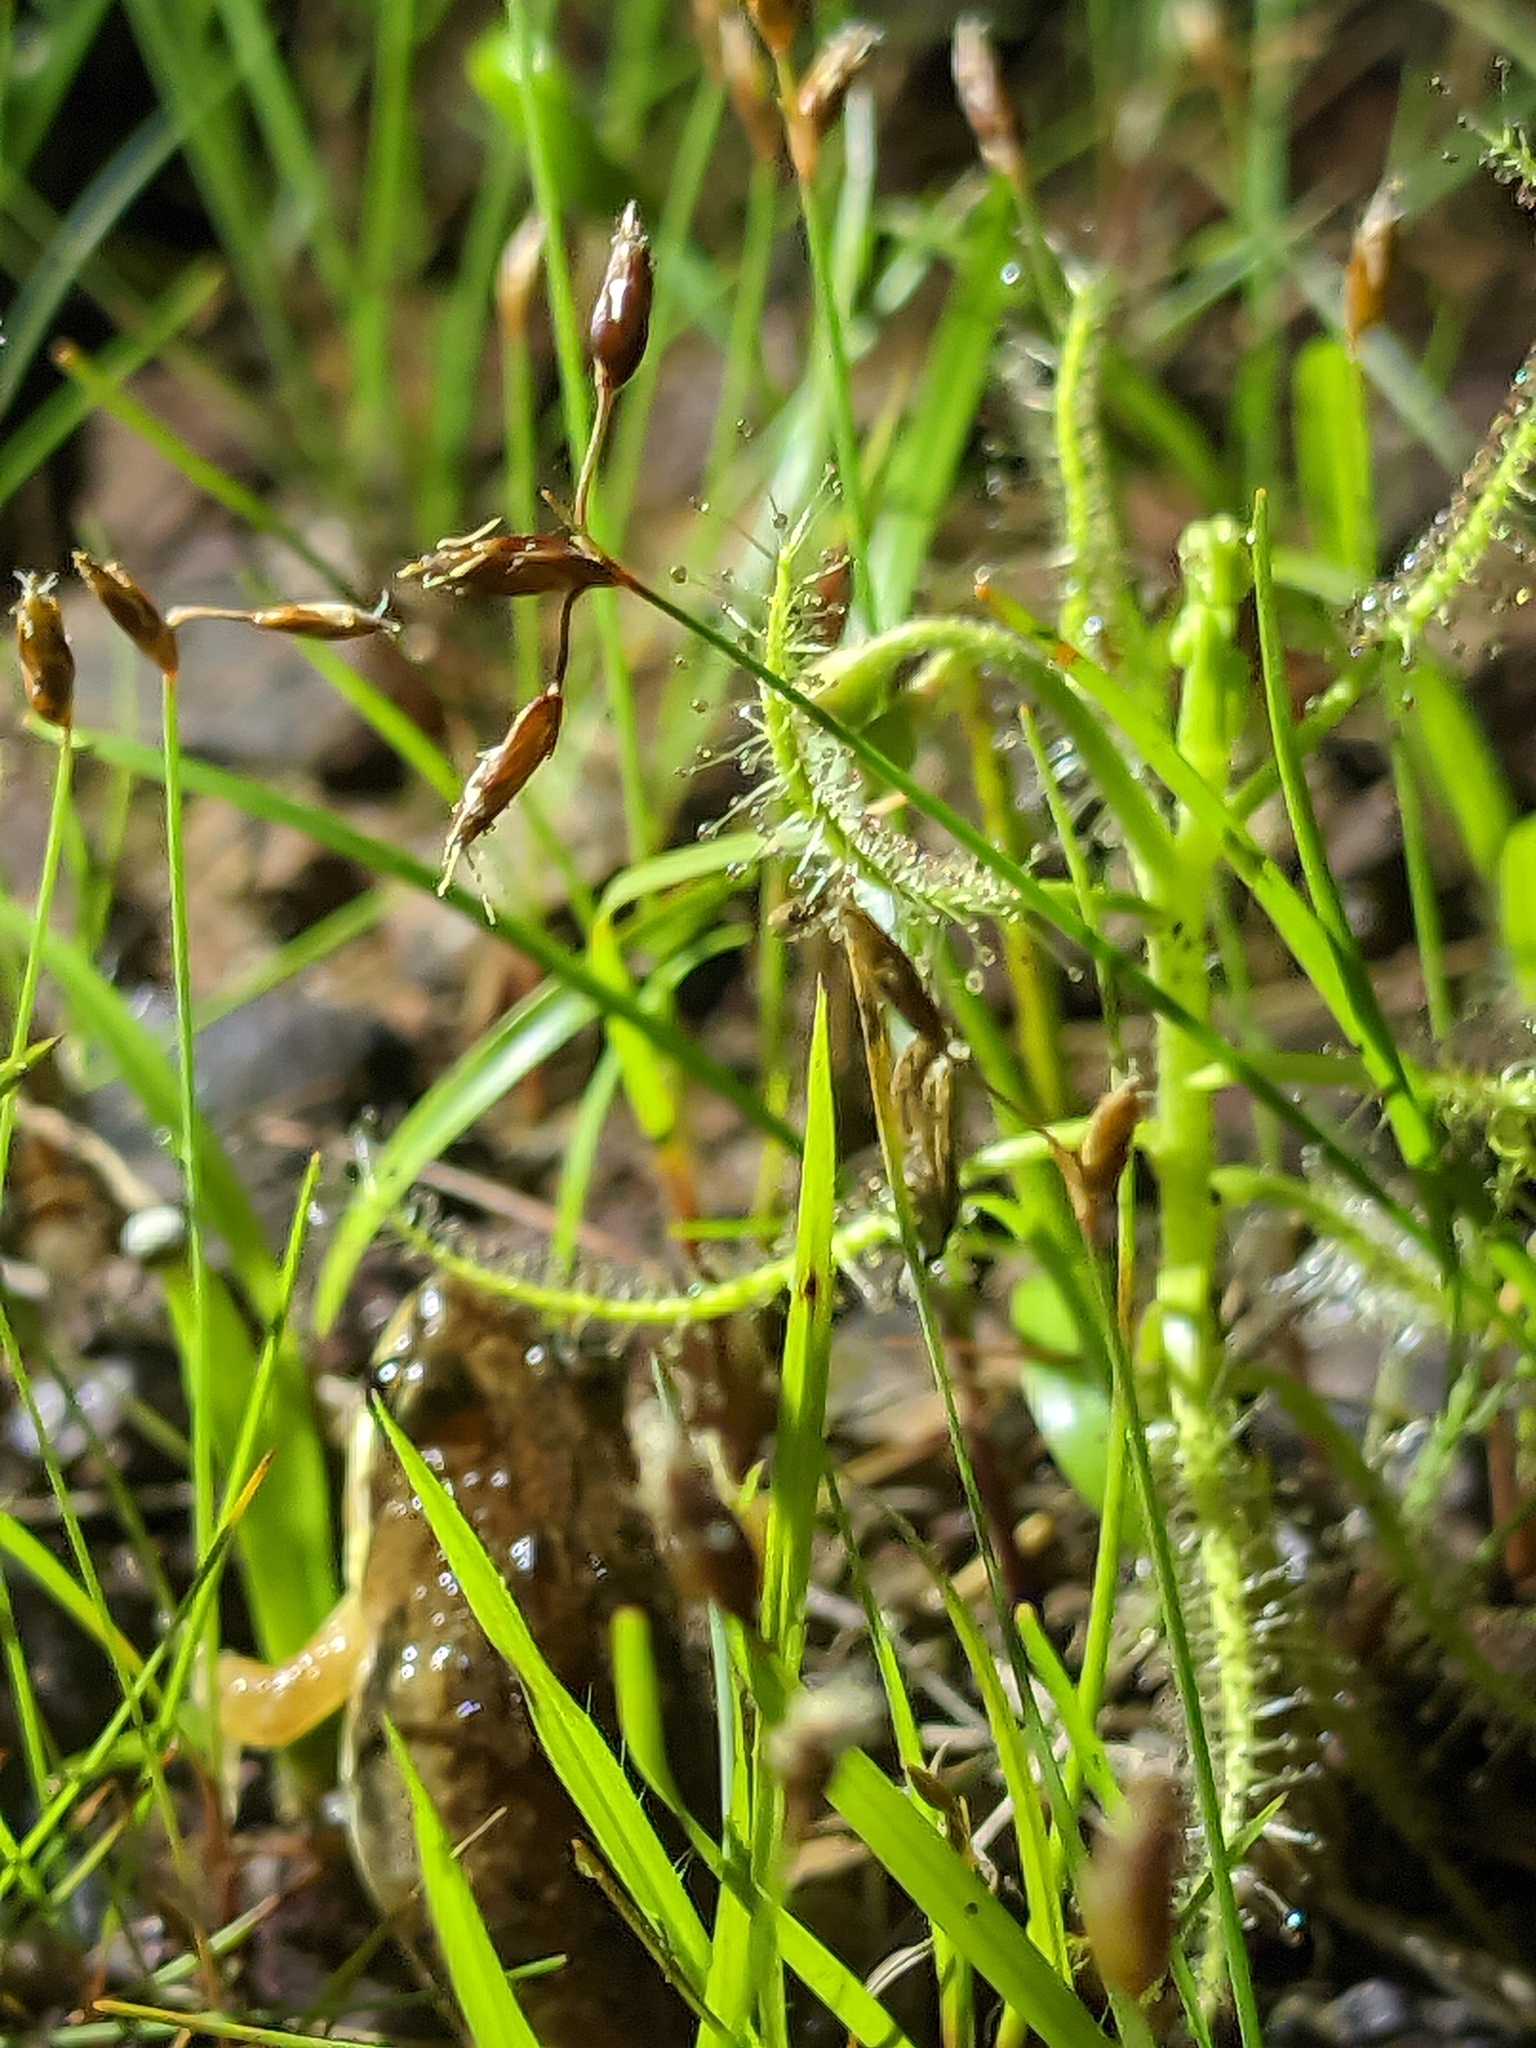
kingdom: Plantae
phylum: Tracheophyta
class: Magnoliopsida
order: Caryophyllales
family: Droseraceae
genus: Drosera
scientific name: Drosera indica
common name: Indian sundew
